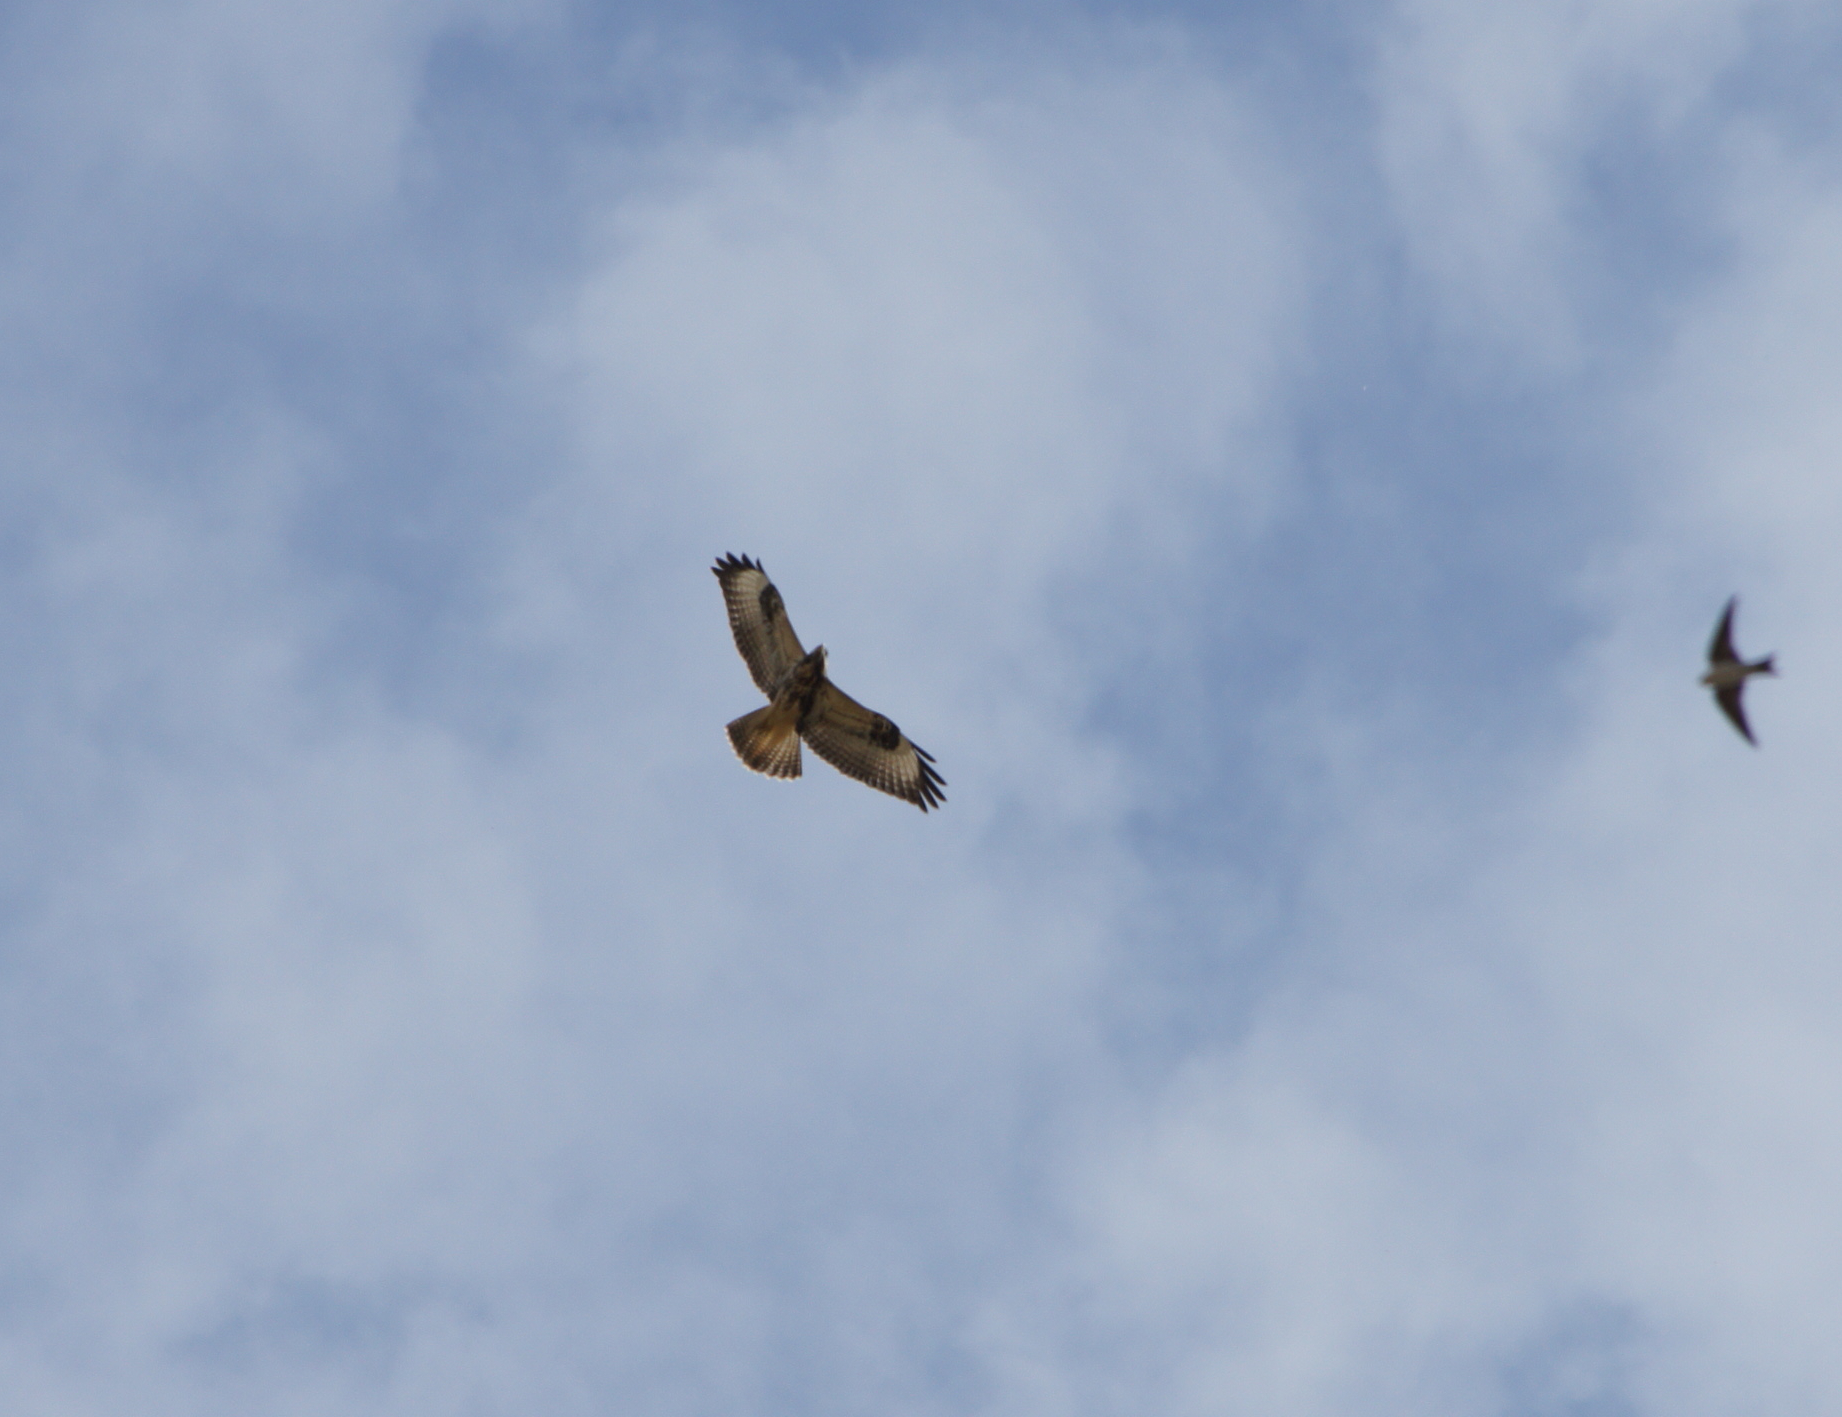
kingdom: Animalia
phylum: Chordata
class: Aves
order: Accipitriformes
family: Accipitridae
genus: Buteo
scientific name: Buteo buteo
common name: Common buzzard
